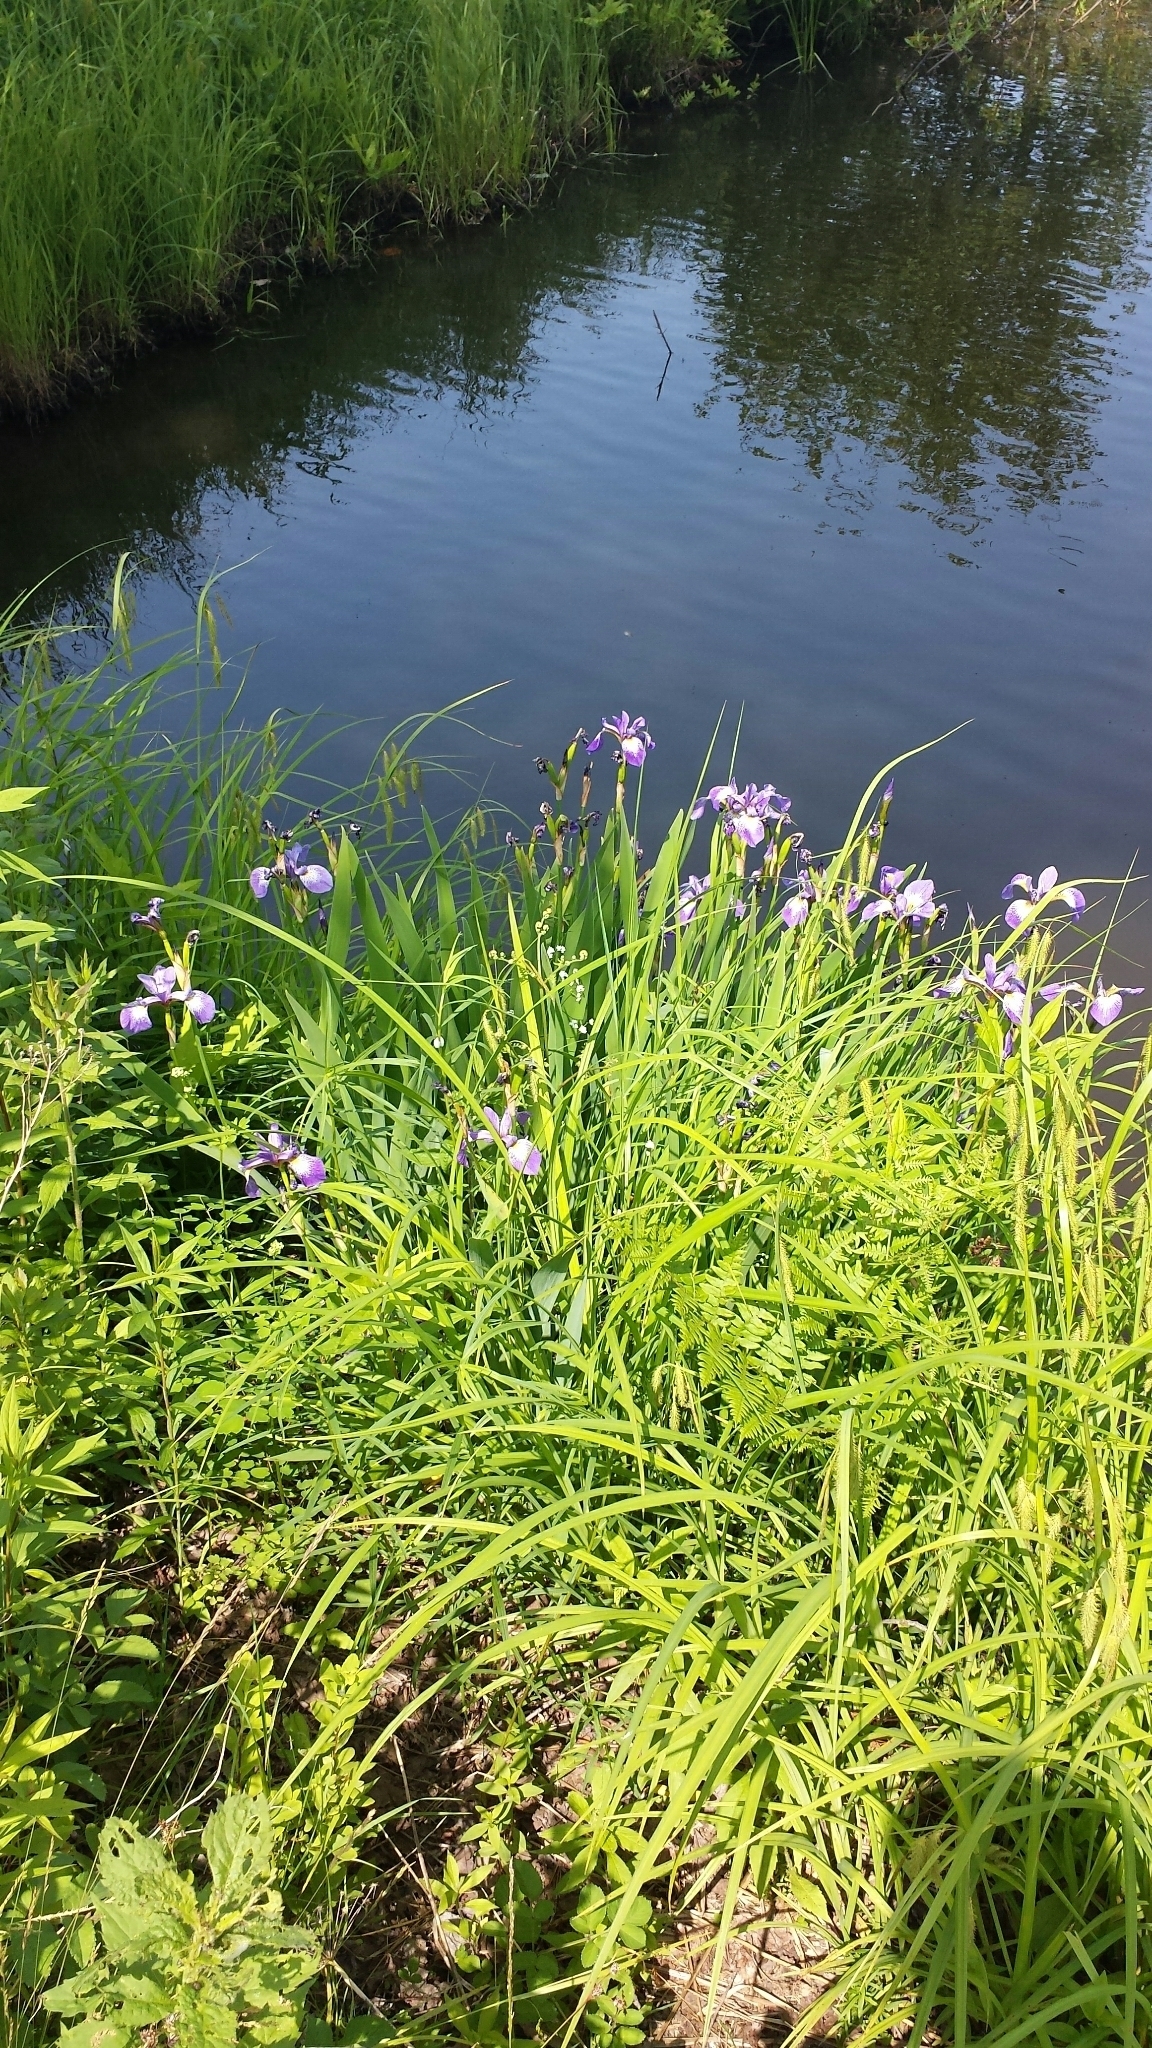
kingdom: Plantae
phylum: Tracheophyta
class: Liliopsida
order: Asparagales
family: Iridaceae
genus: Iris
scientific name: Iris versicolor
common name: Purple iris
